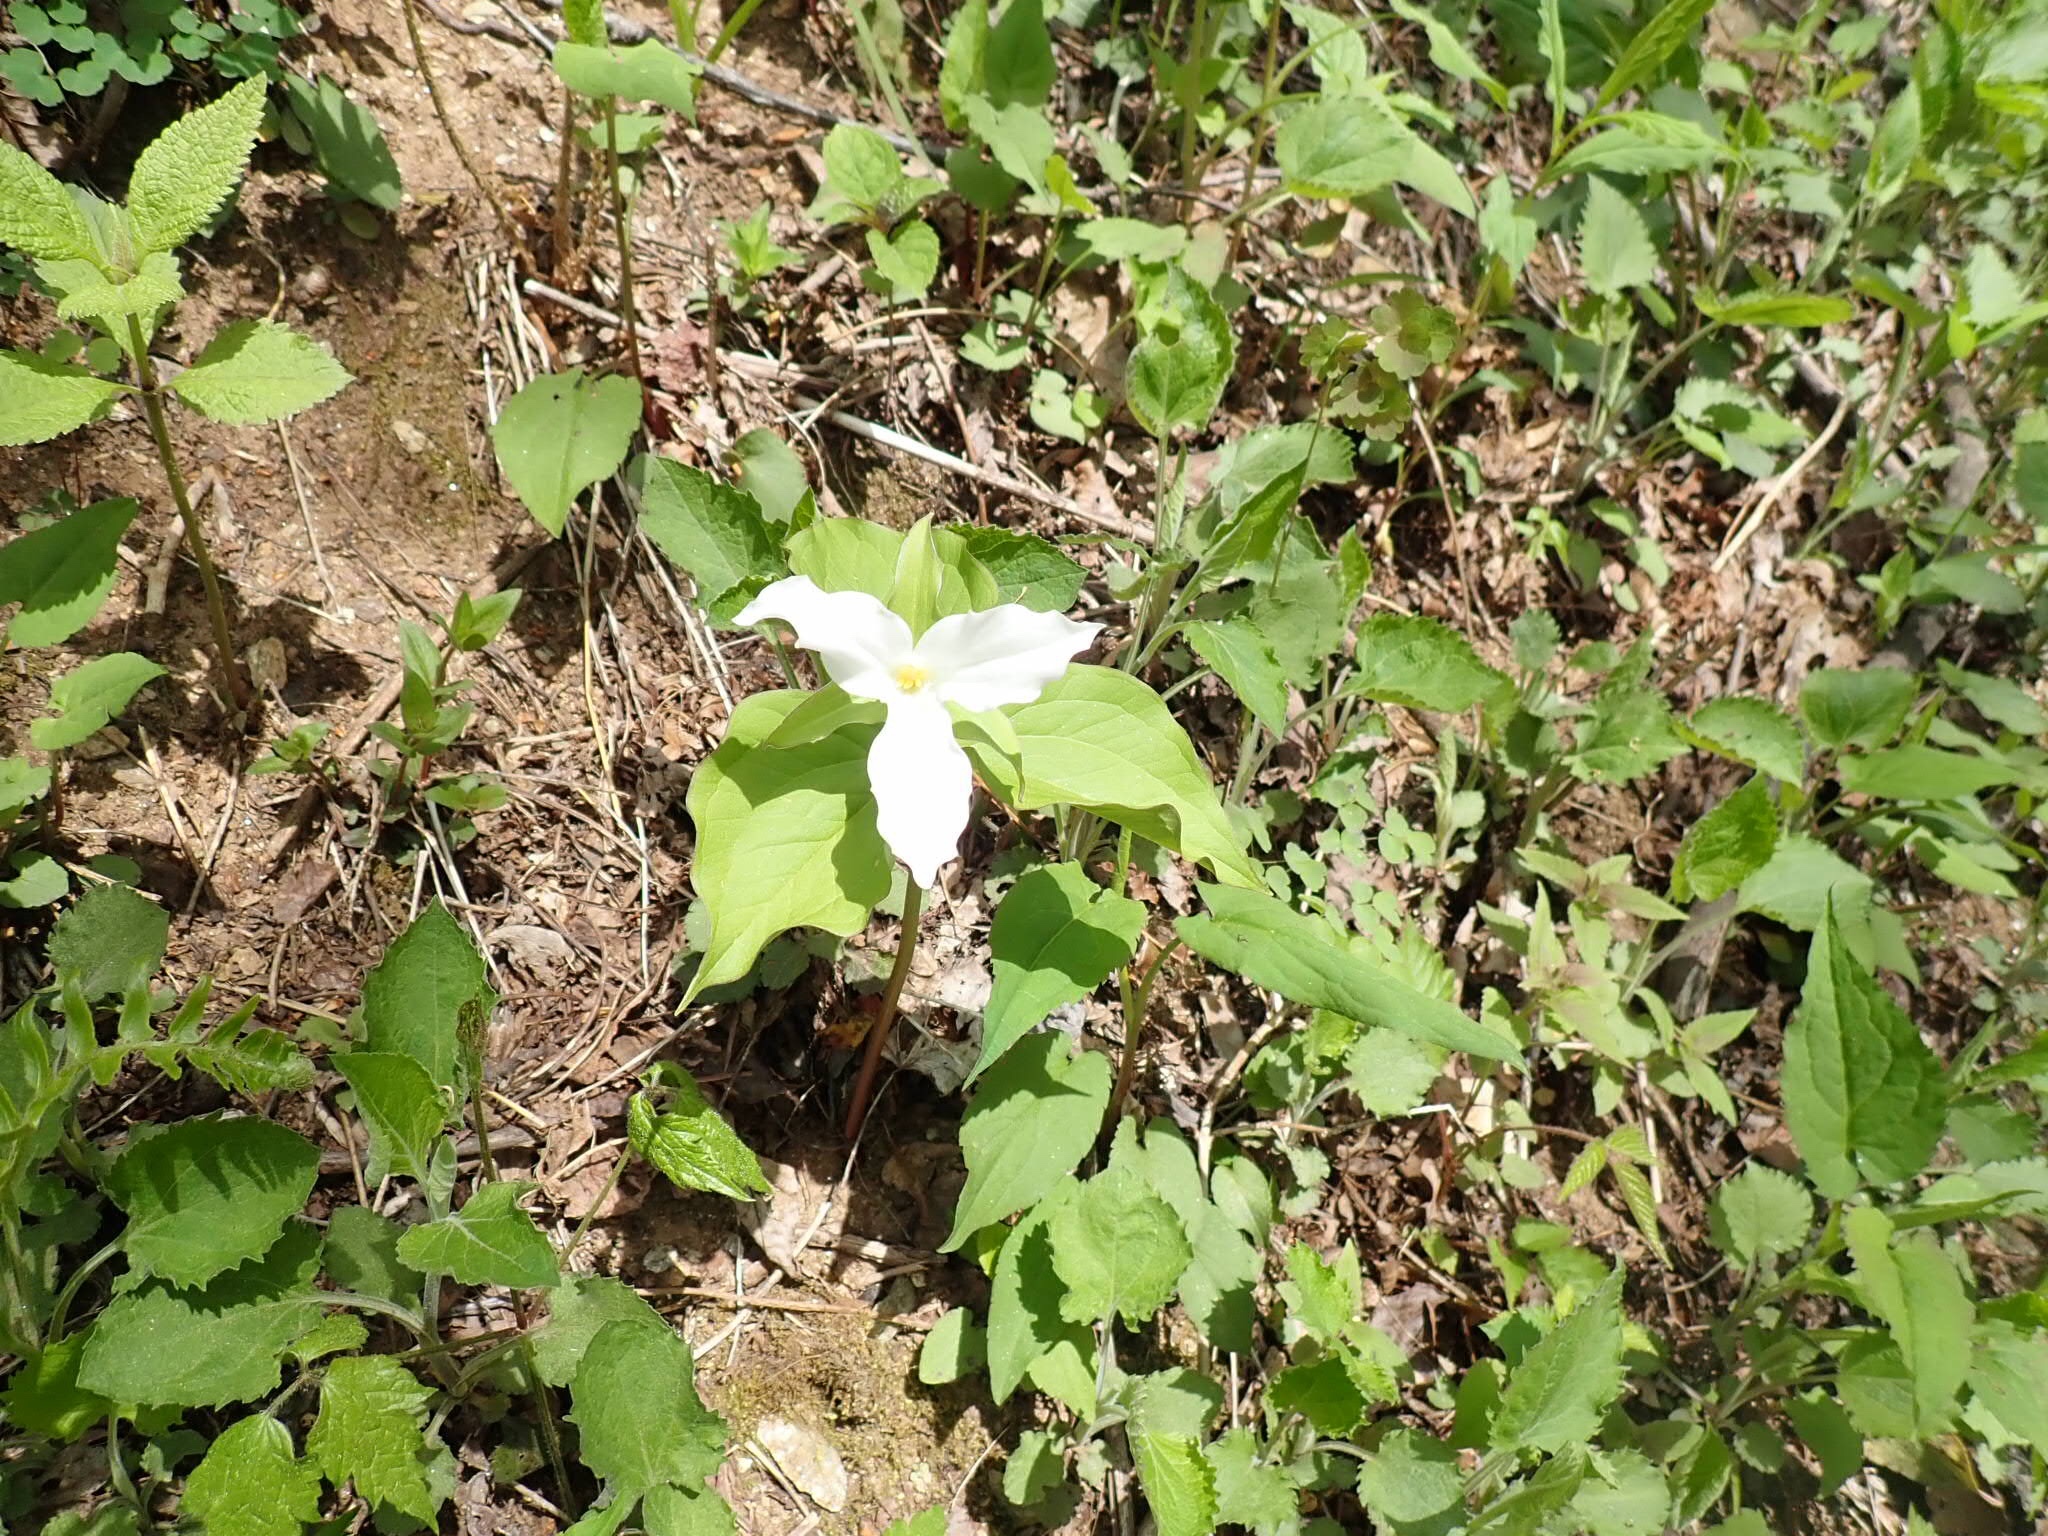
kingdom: Plantae
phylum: Tracheophyta
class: Liliopsida
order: Liliales
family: Melanthiaceae
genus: Trillium
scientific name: Trillium grandiflorum
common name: Great white trillium
